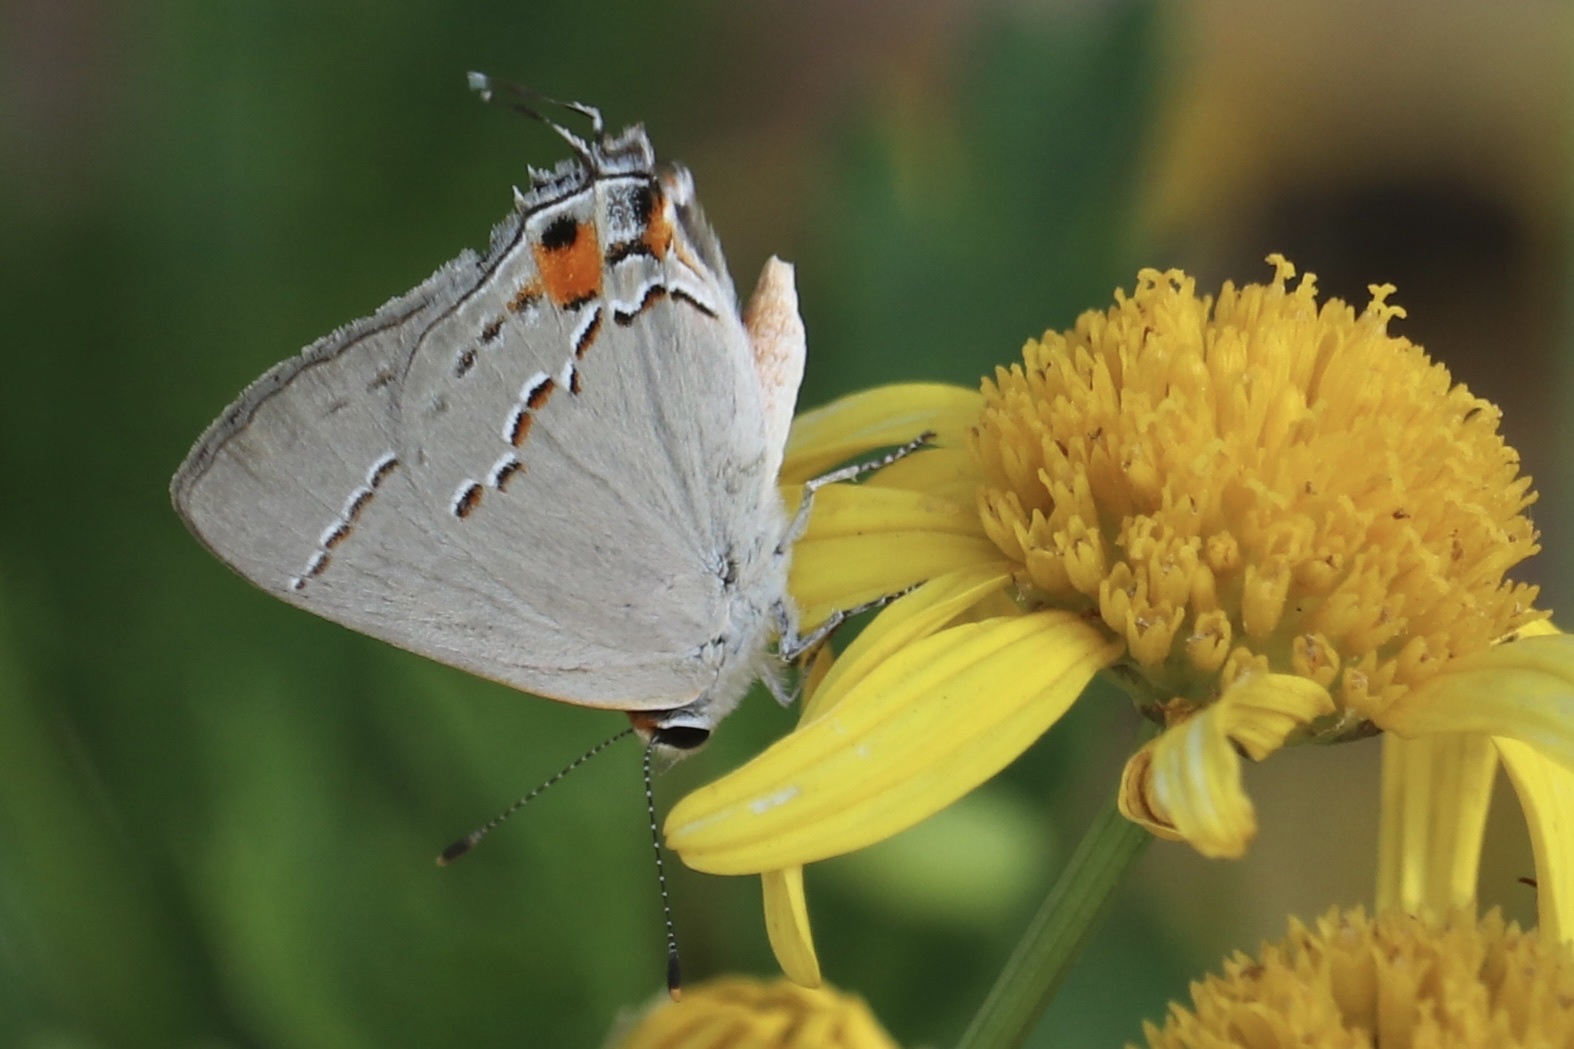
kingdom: Animalia
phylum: Arthropoda
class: Insecta
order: Lepidoptera
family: Lycaenidae
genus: Strymon
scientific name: Strymon melinus
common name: Gray hairstreak
